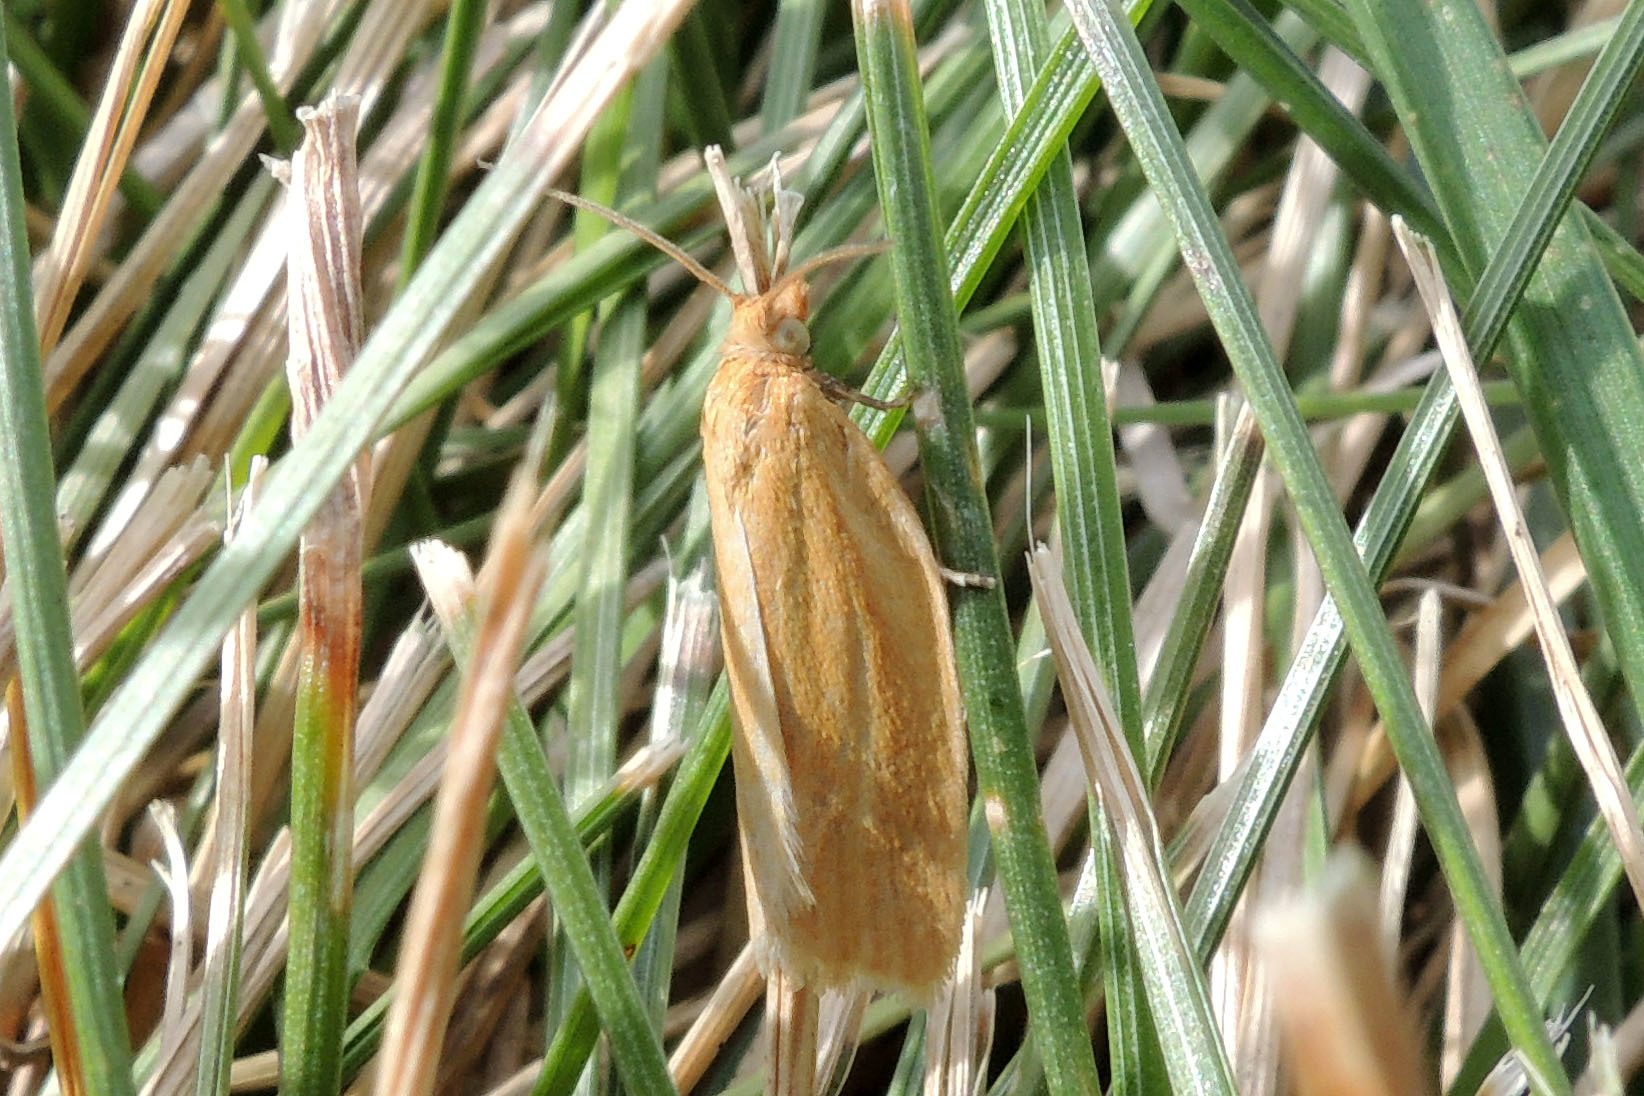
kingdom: Animalia
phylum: Arthropoda
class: Insecta
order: Lepidoptera
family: Tortricidae
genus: Clepsis
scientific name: Clepsis clemensiana
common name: Clemens' clepsis moth
